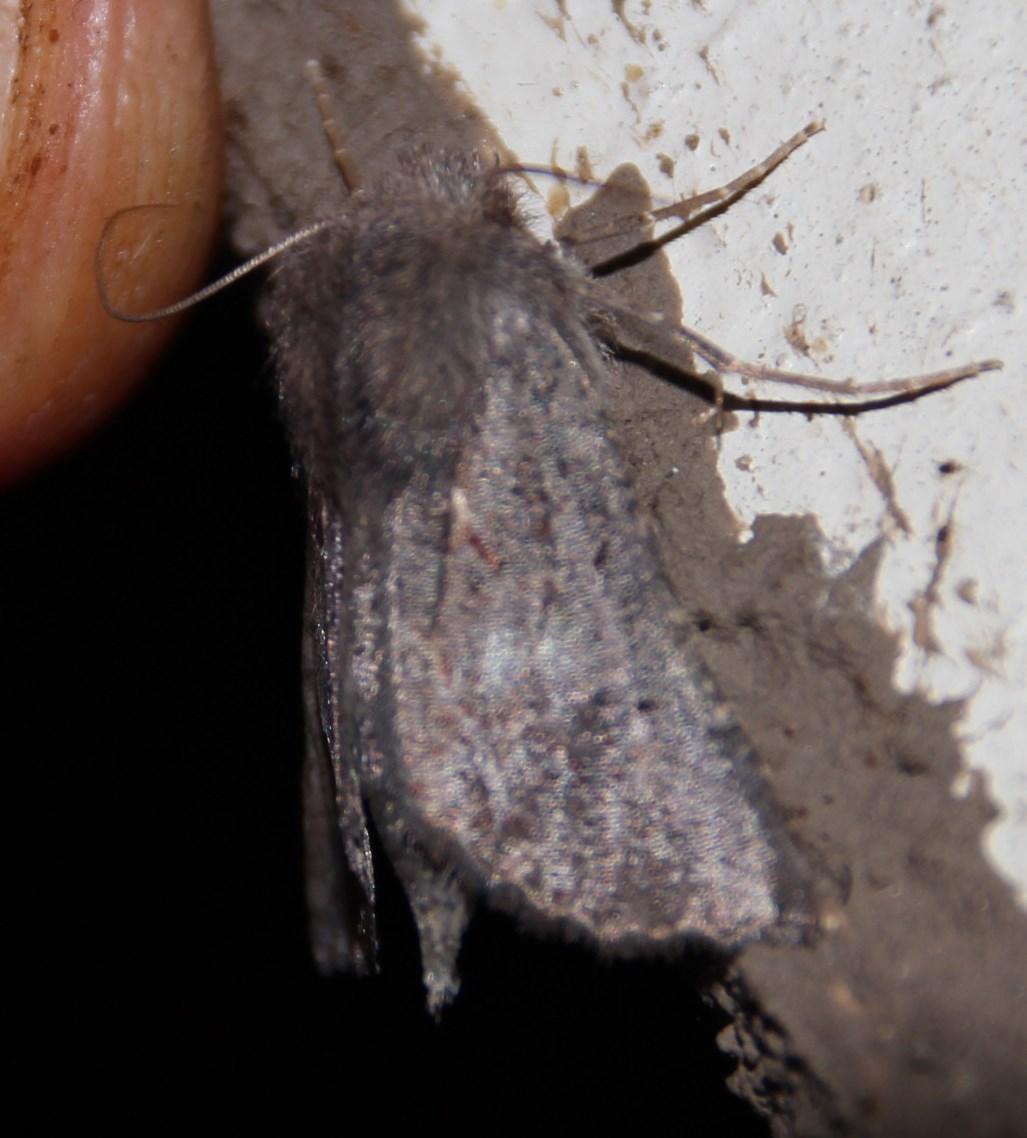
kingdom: Animalia
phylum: Arthropoda
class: Insecta
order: Lepidoptera
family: Geometridae
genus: Axiodes
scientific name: Axiodes
